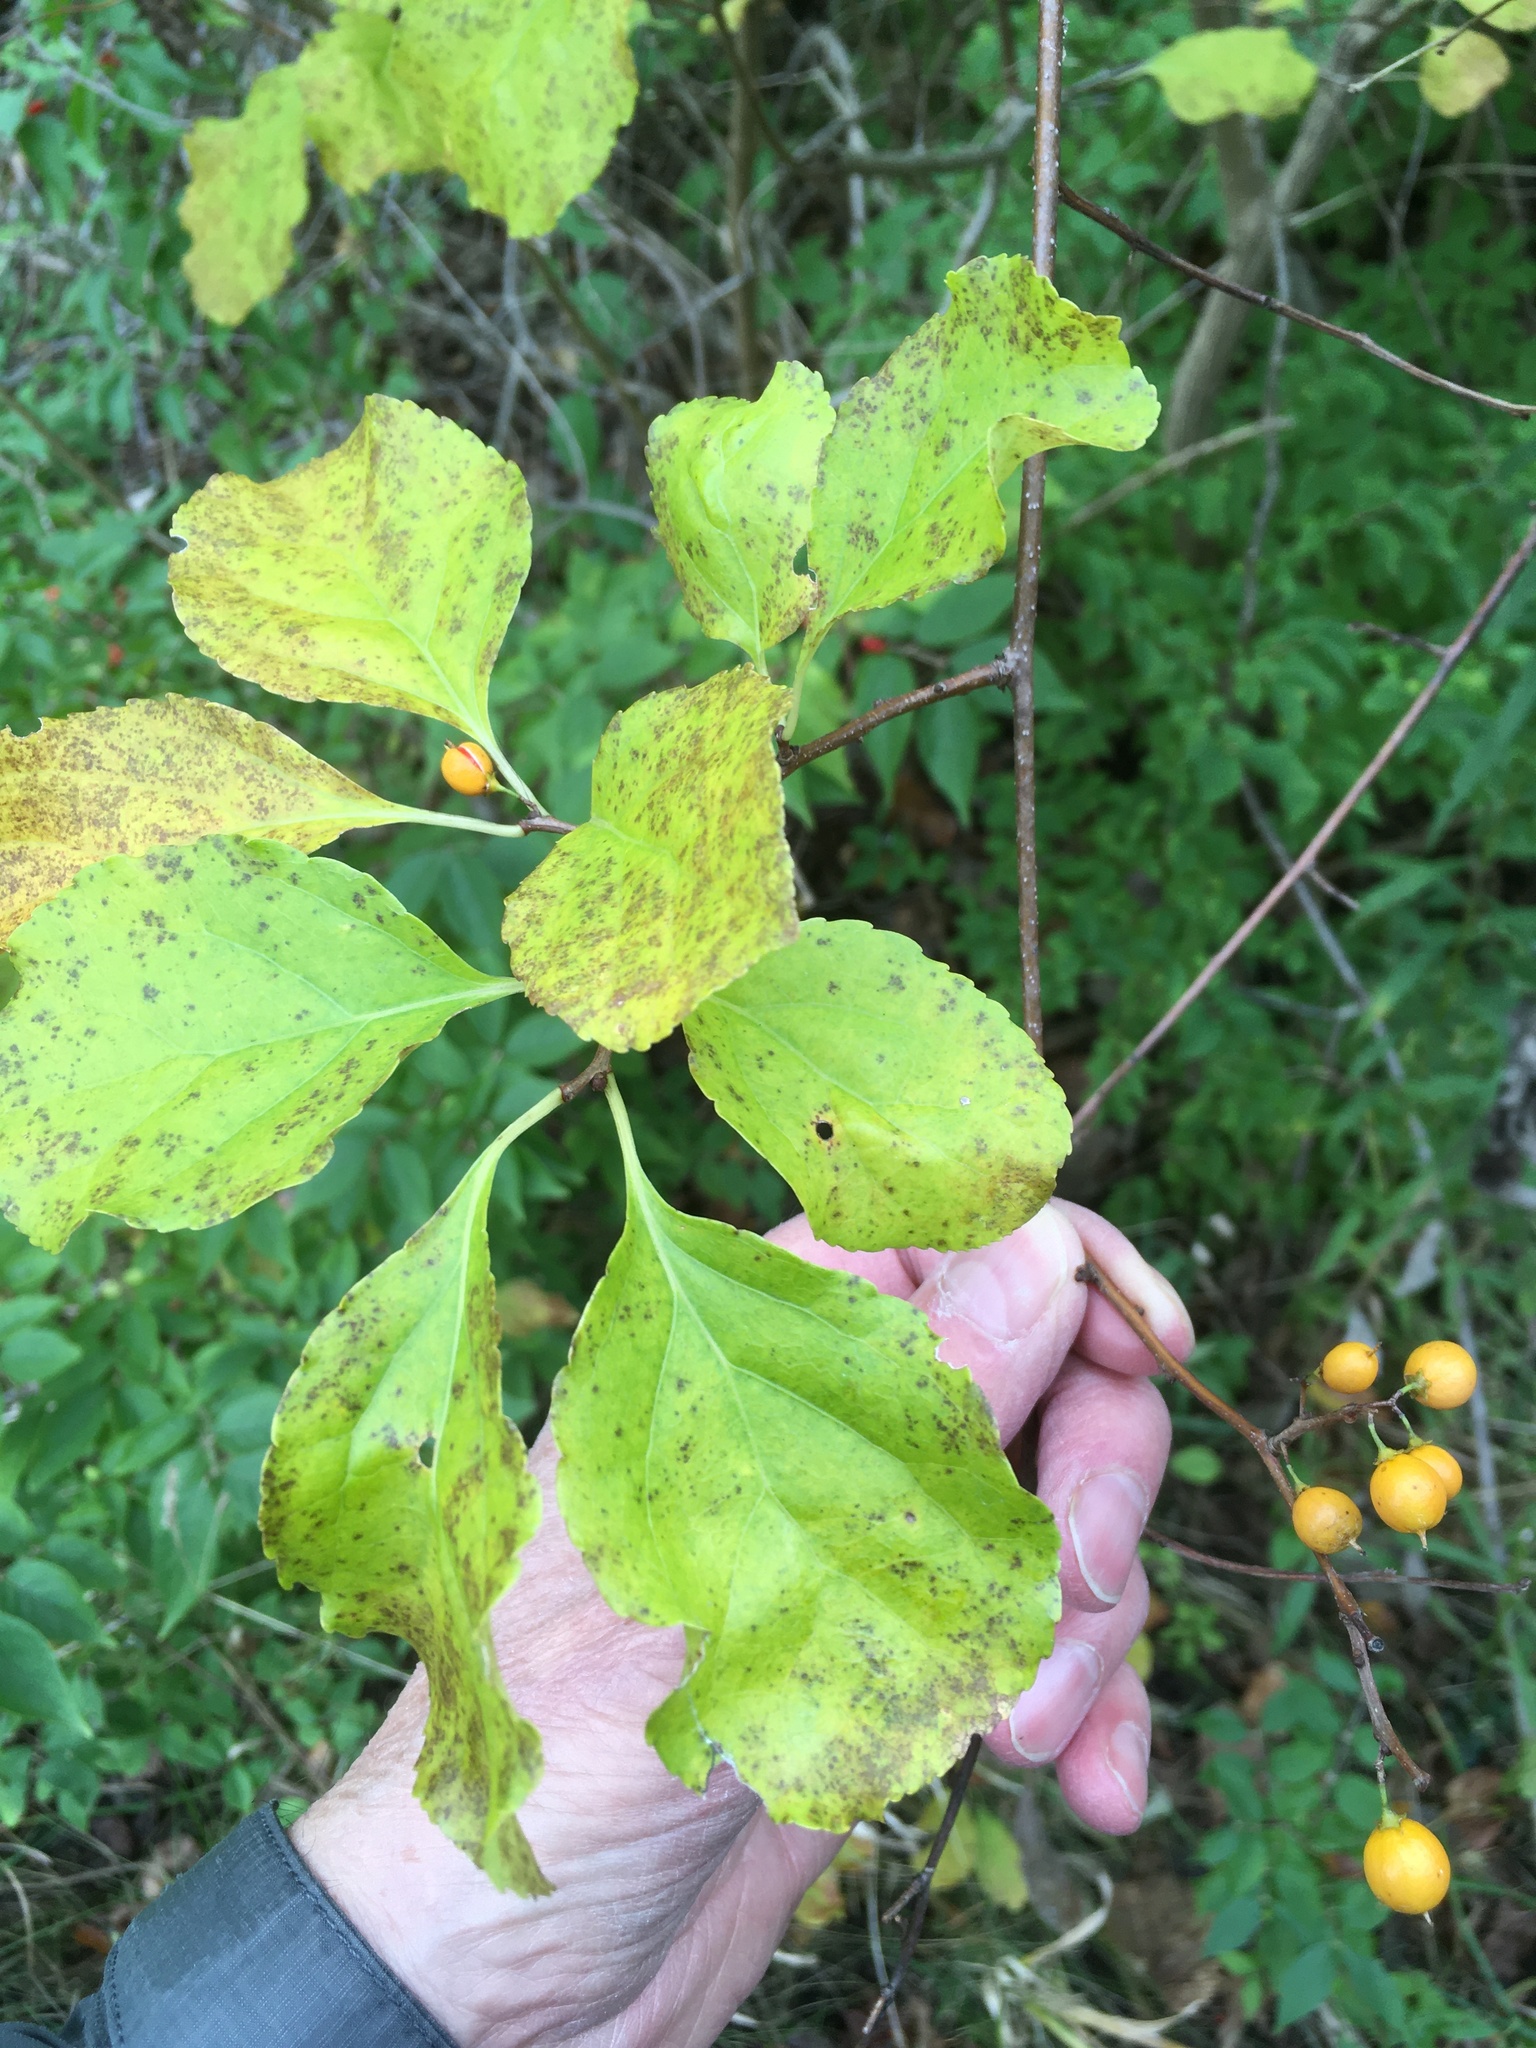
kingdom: Plantae
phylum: Tracheophyta
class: Magnoliopsida
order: Celastrales
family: Celastraceae
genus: Celastrus
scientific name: Celastrus orbiculatus
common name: Oriental bittersweet
